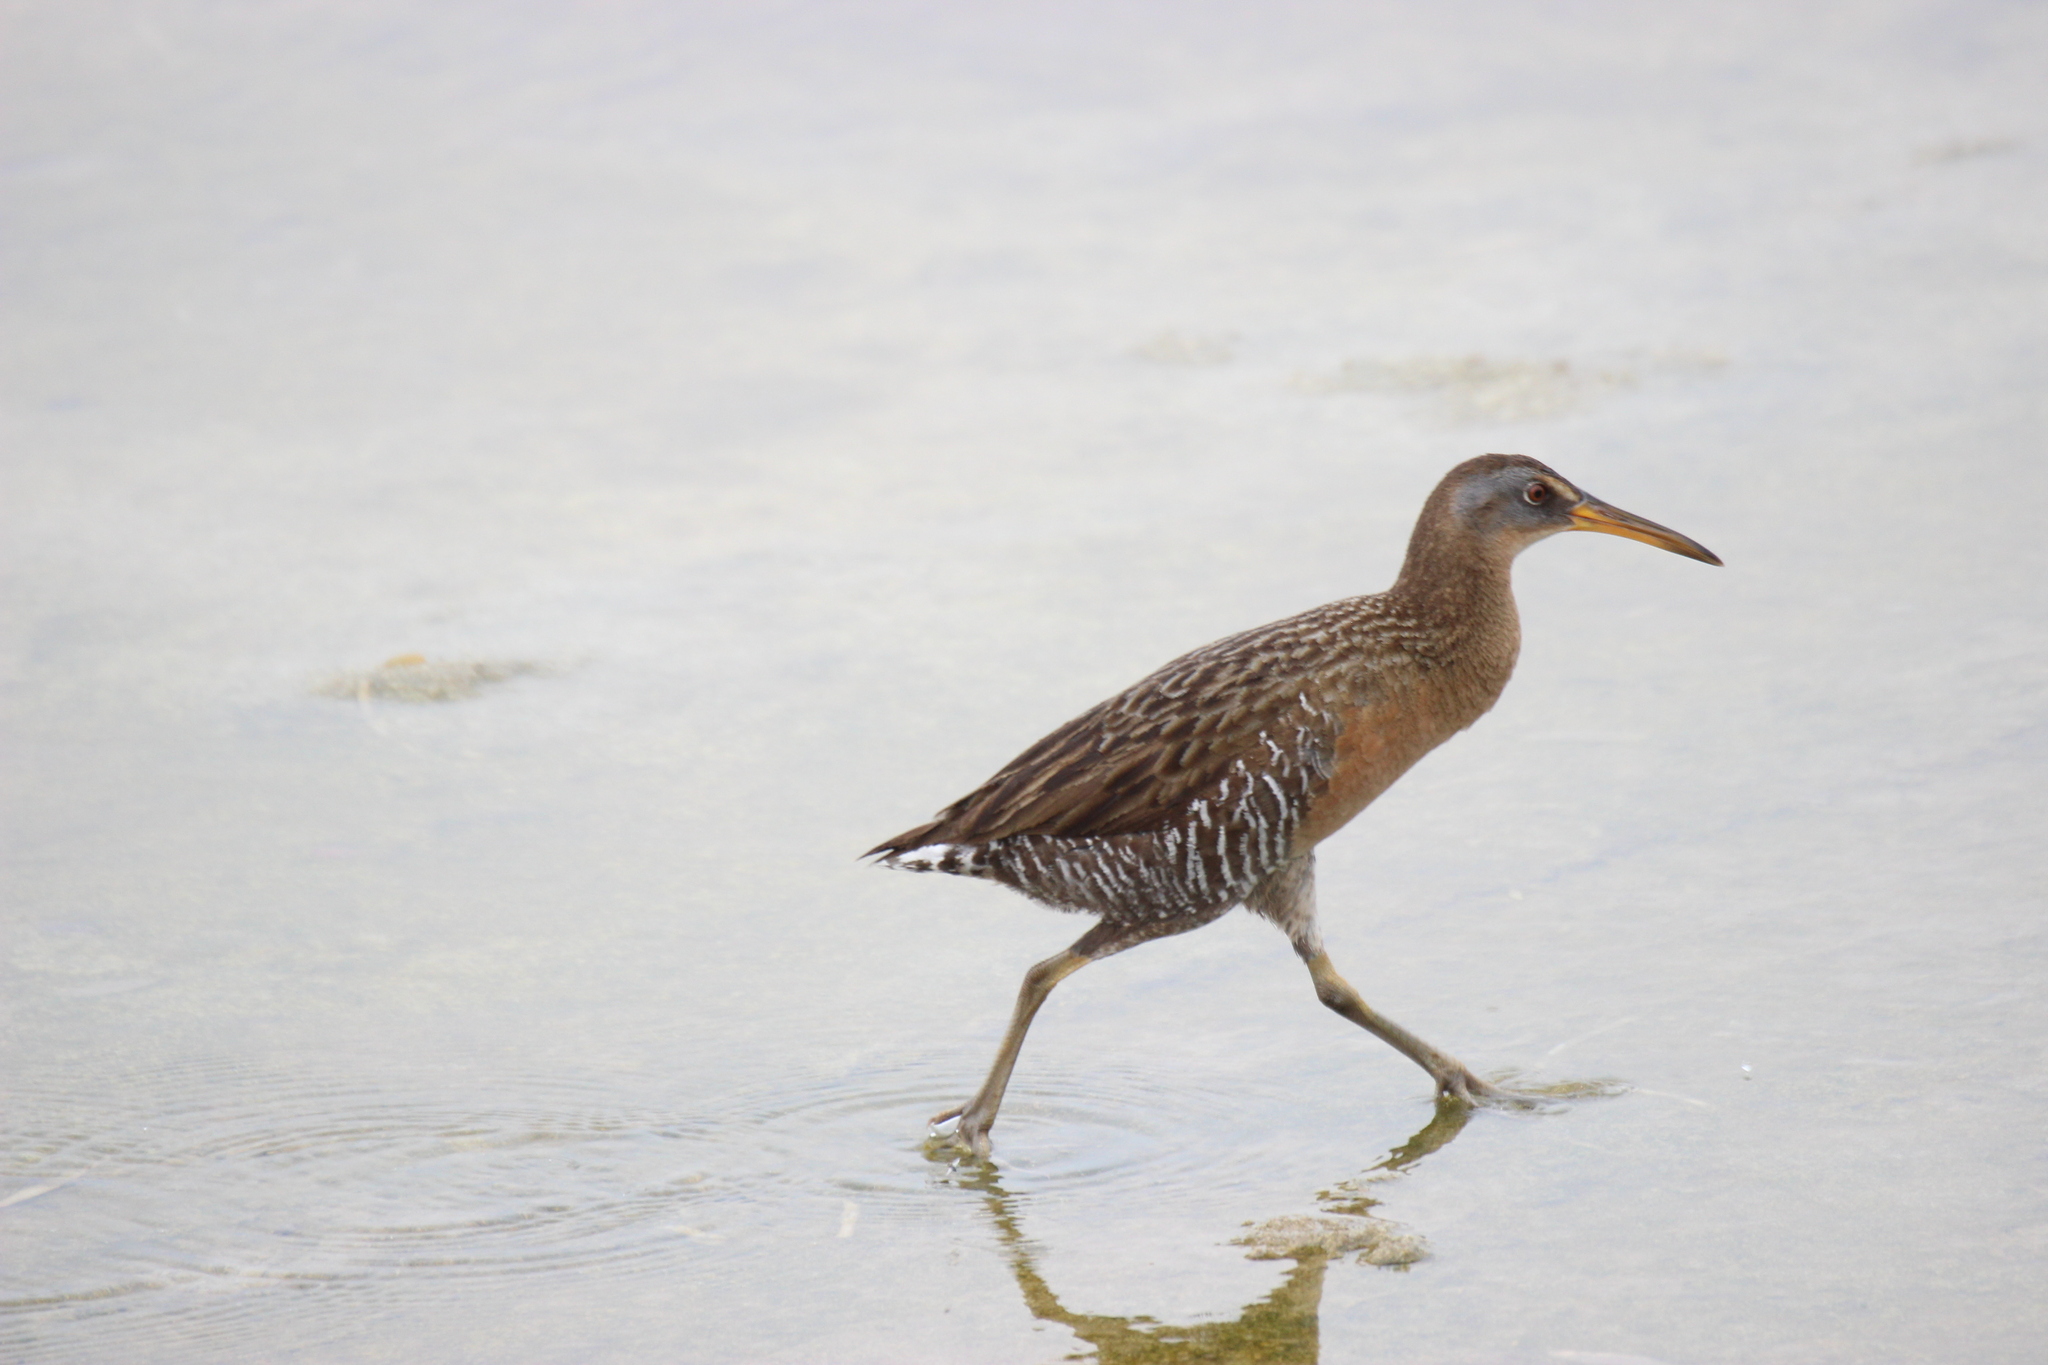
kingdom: Animalia
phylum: Chordata
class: Aves
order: Gruiformes
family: Rallidae
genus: Rallus
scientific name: Rallus crepitans
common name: Clapper rail
